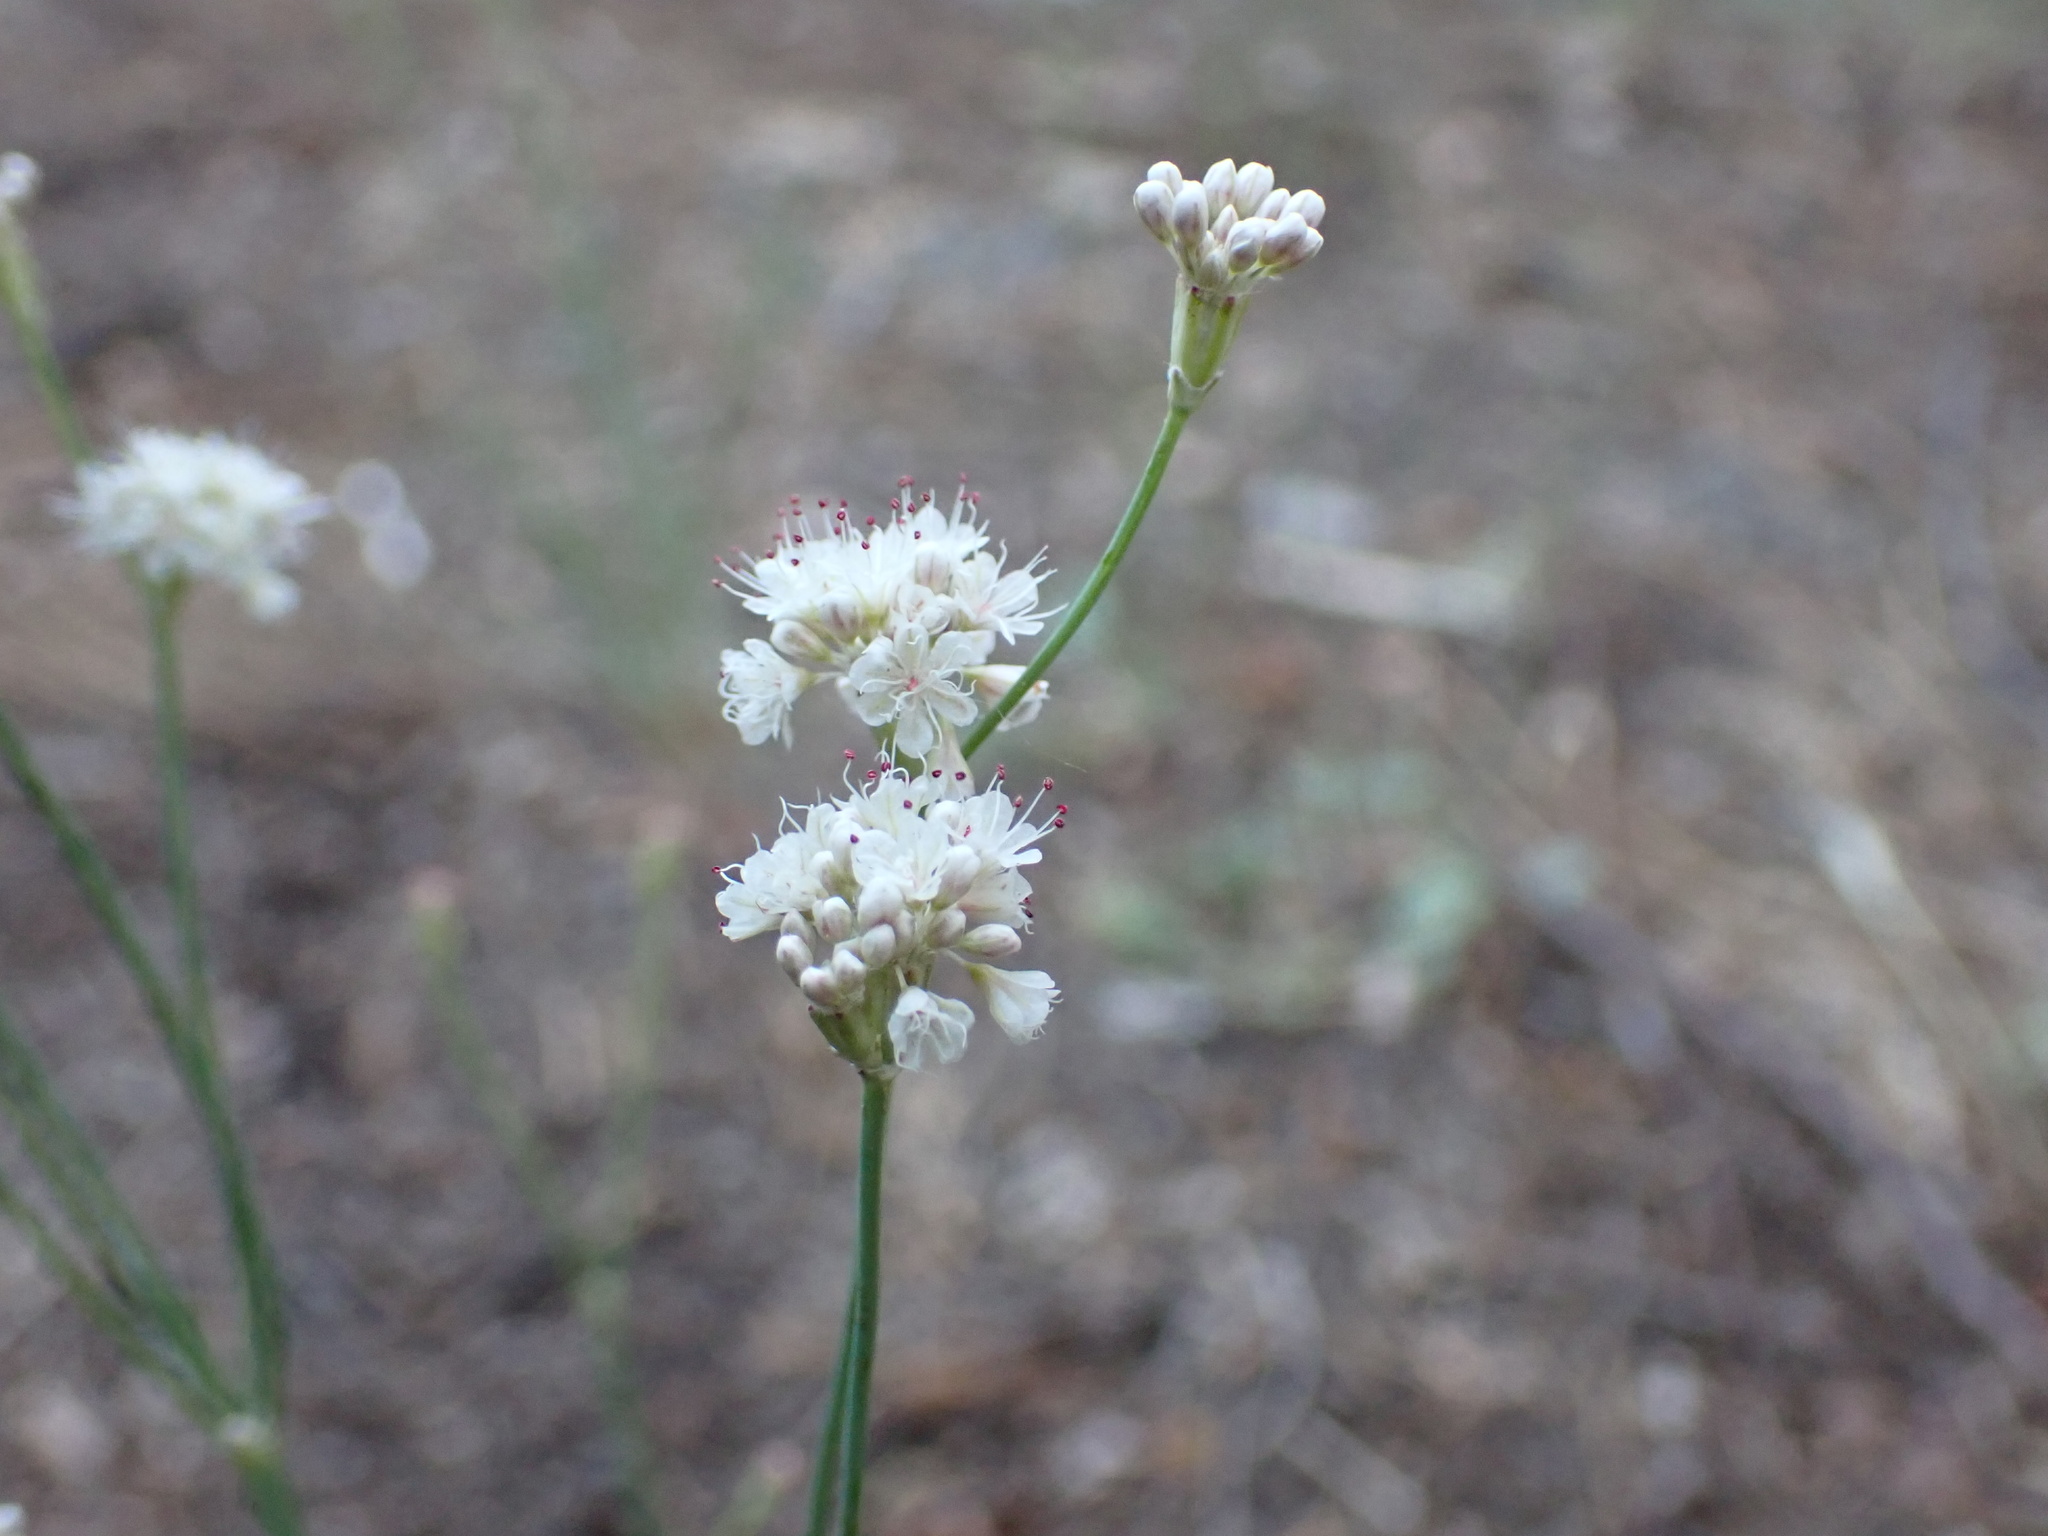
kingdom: Plantae
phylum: Tracheophyta
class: Magnoliopsida
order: Caryophyllales
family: Polygonaceae
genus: Eriogonum
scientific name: Eriogonum nudum
